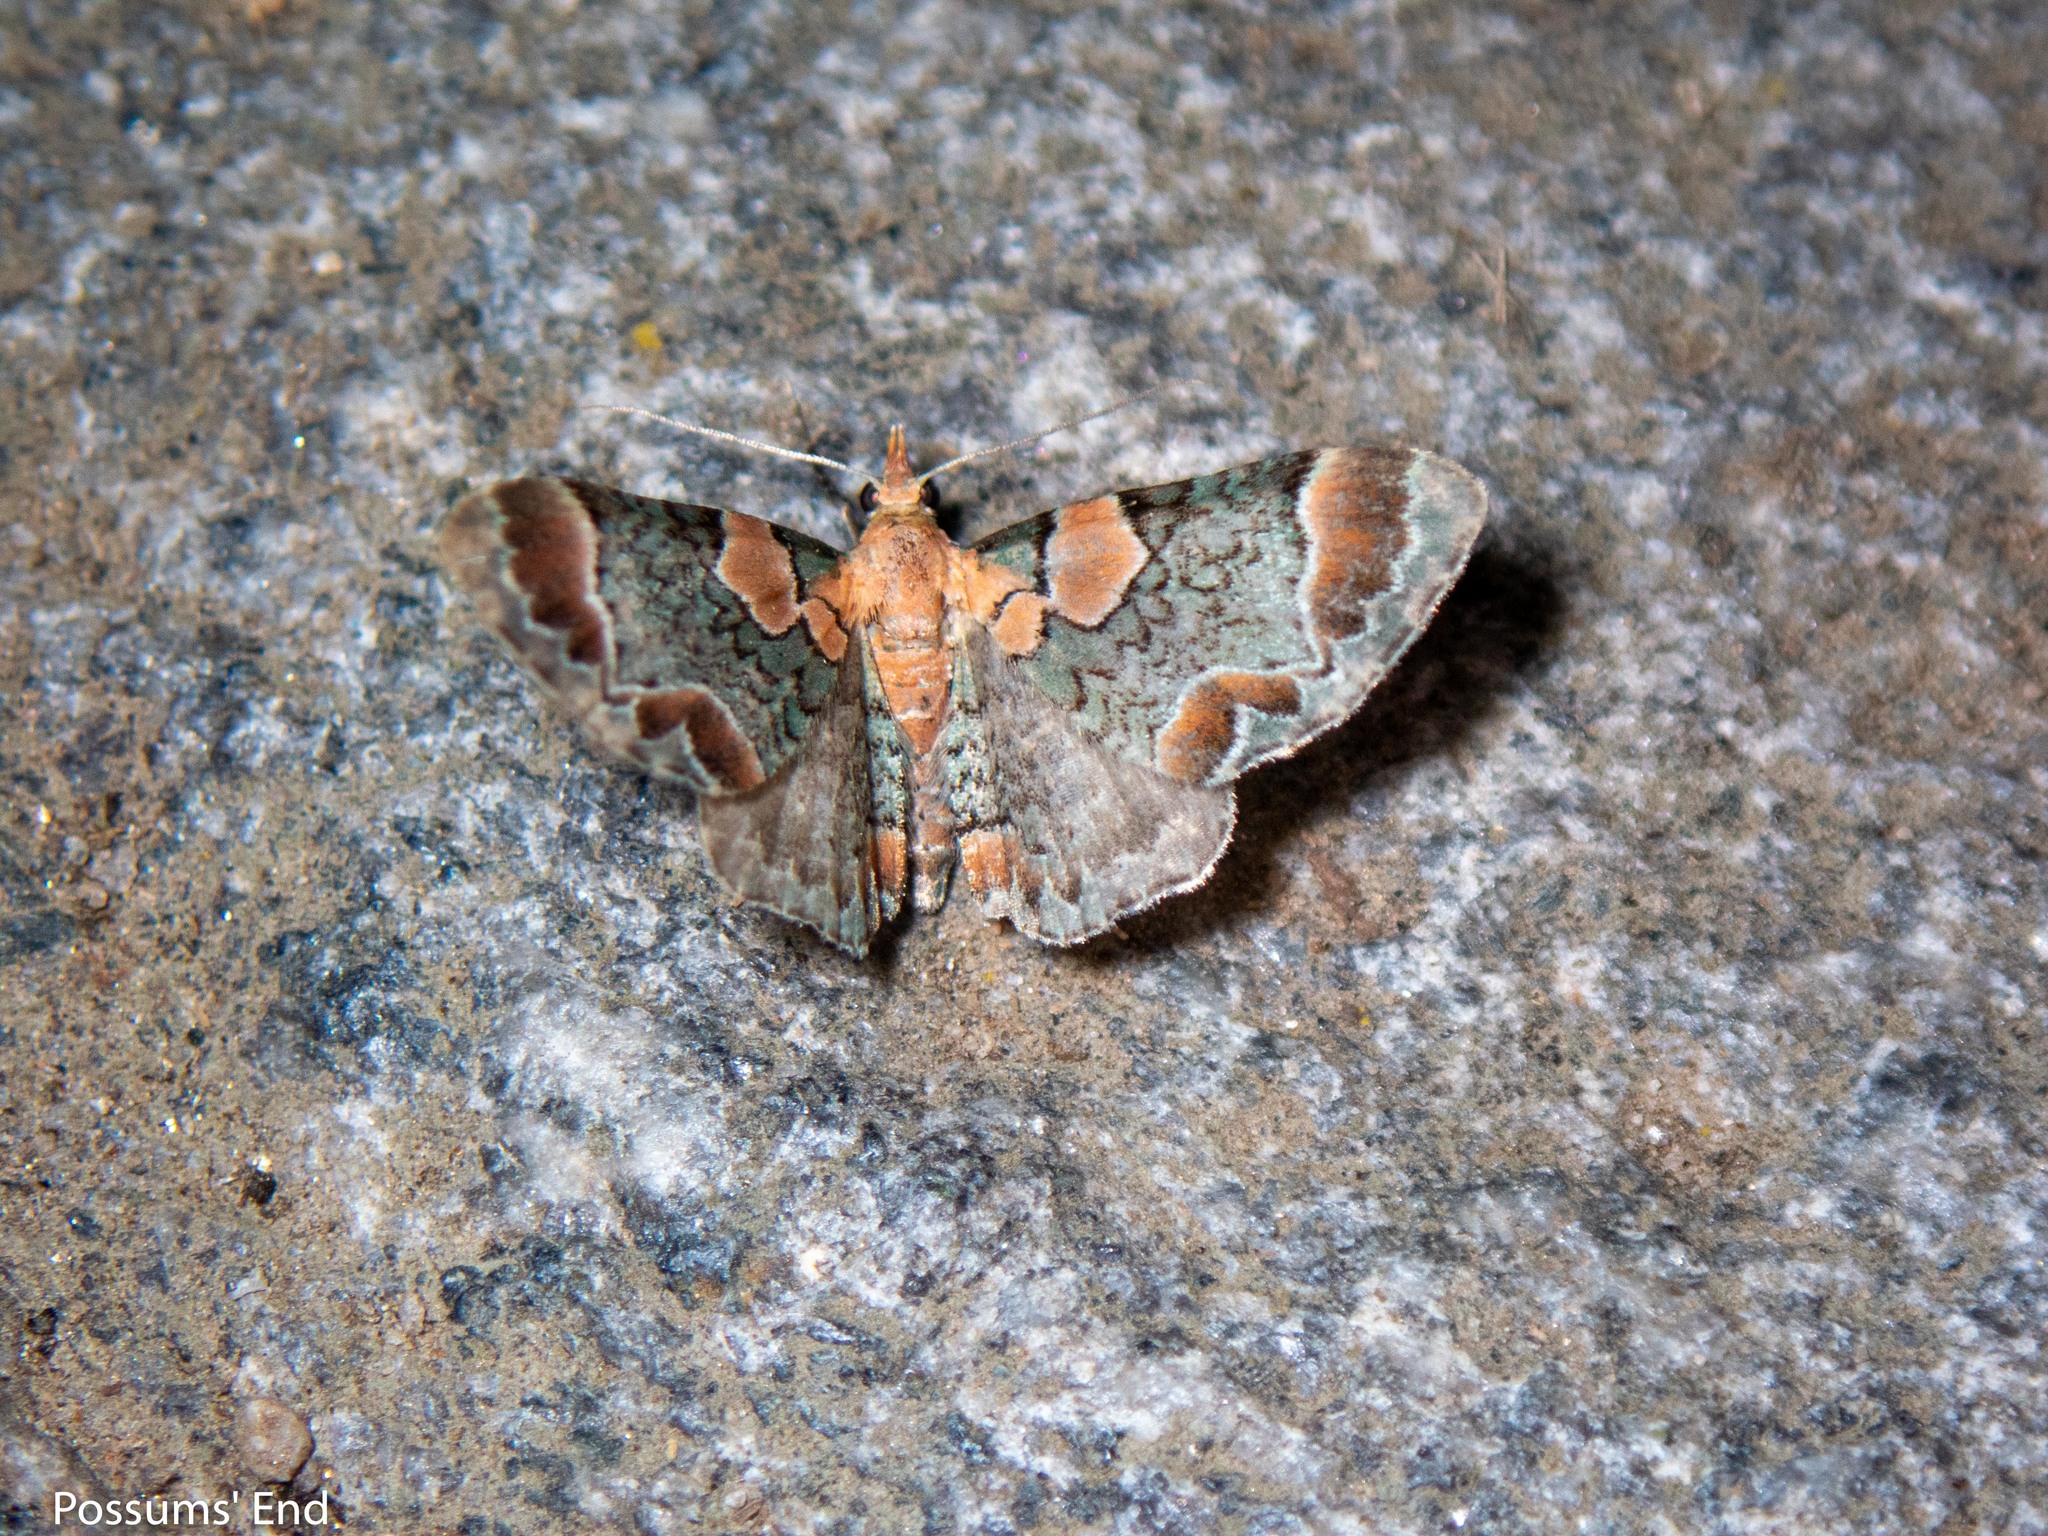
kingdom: Animalia
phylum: Arthropoda
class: Insecta
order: Lepidoptera
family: Geometridae
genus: Chloroclystis
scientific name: Chloroclystis
